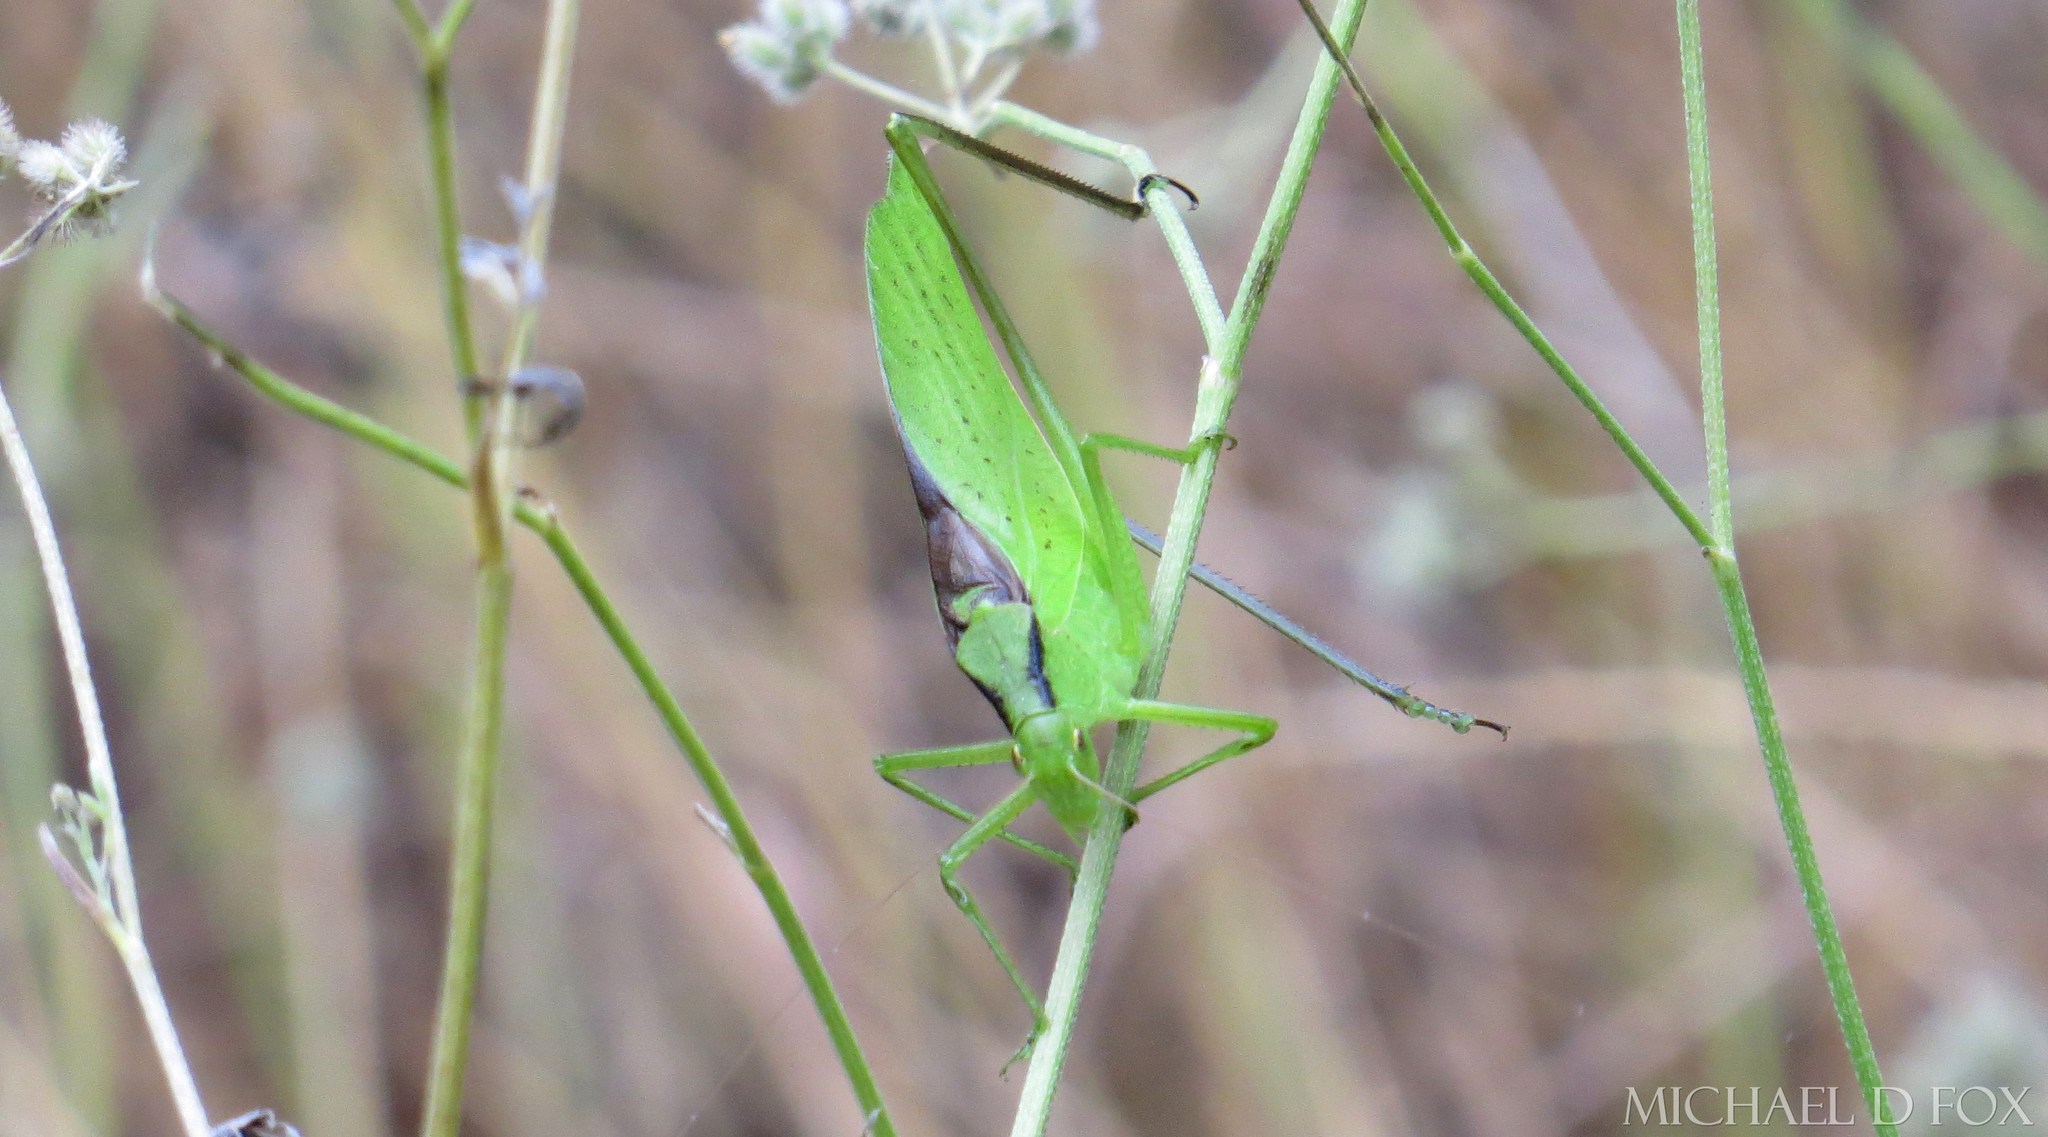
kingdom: Animalia
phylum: Arthropoda
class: Insecta
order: Orthoptera
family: Tettigoniidae
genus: Amblycorypha
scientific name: Amblycorypha oblongifolia
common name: Oblong-winged katydid
